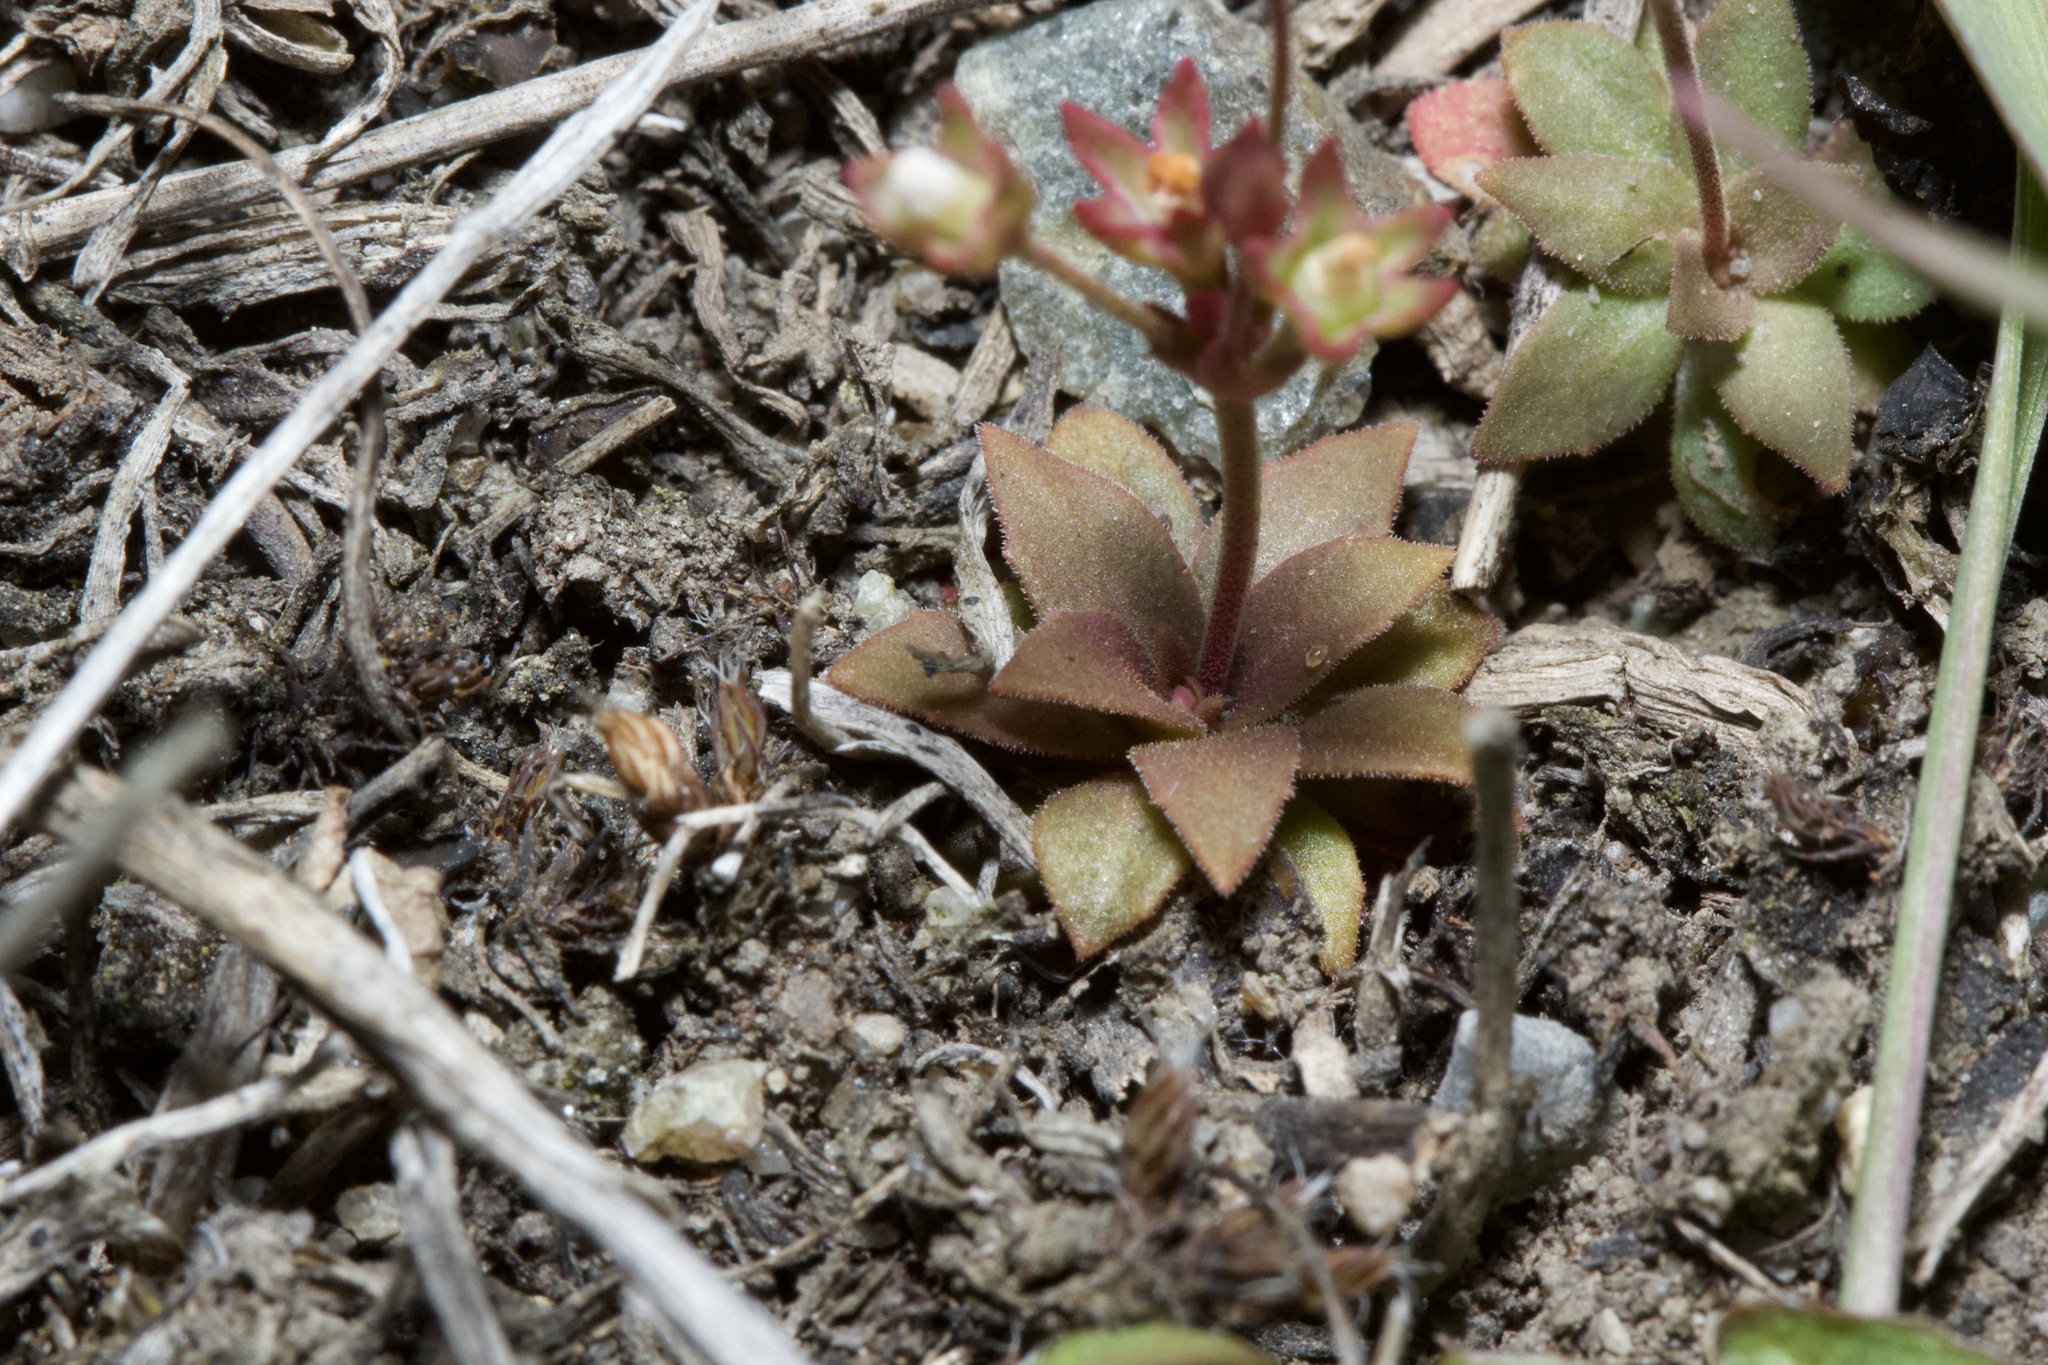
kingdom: Plantae
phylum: Tracheophyta
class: Magnoliopsida
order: Ericales
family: Primulaceae
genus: Androsace
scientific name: Androsace septentrionalis
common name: Hairy northern fairy-candelabra
